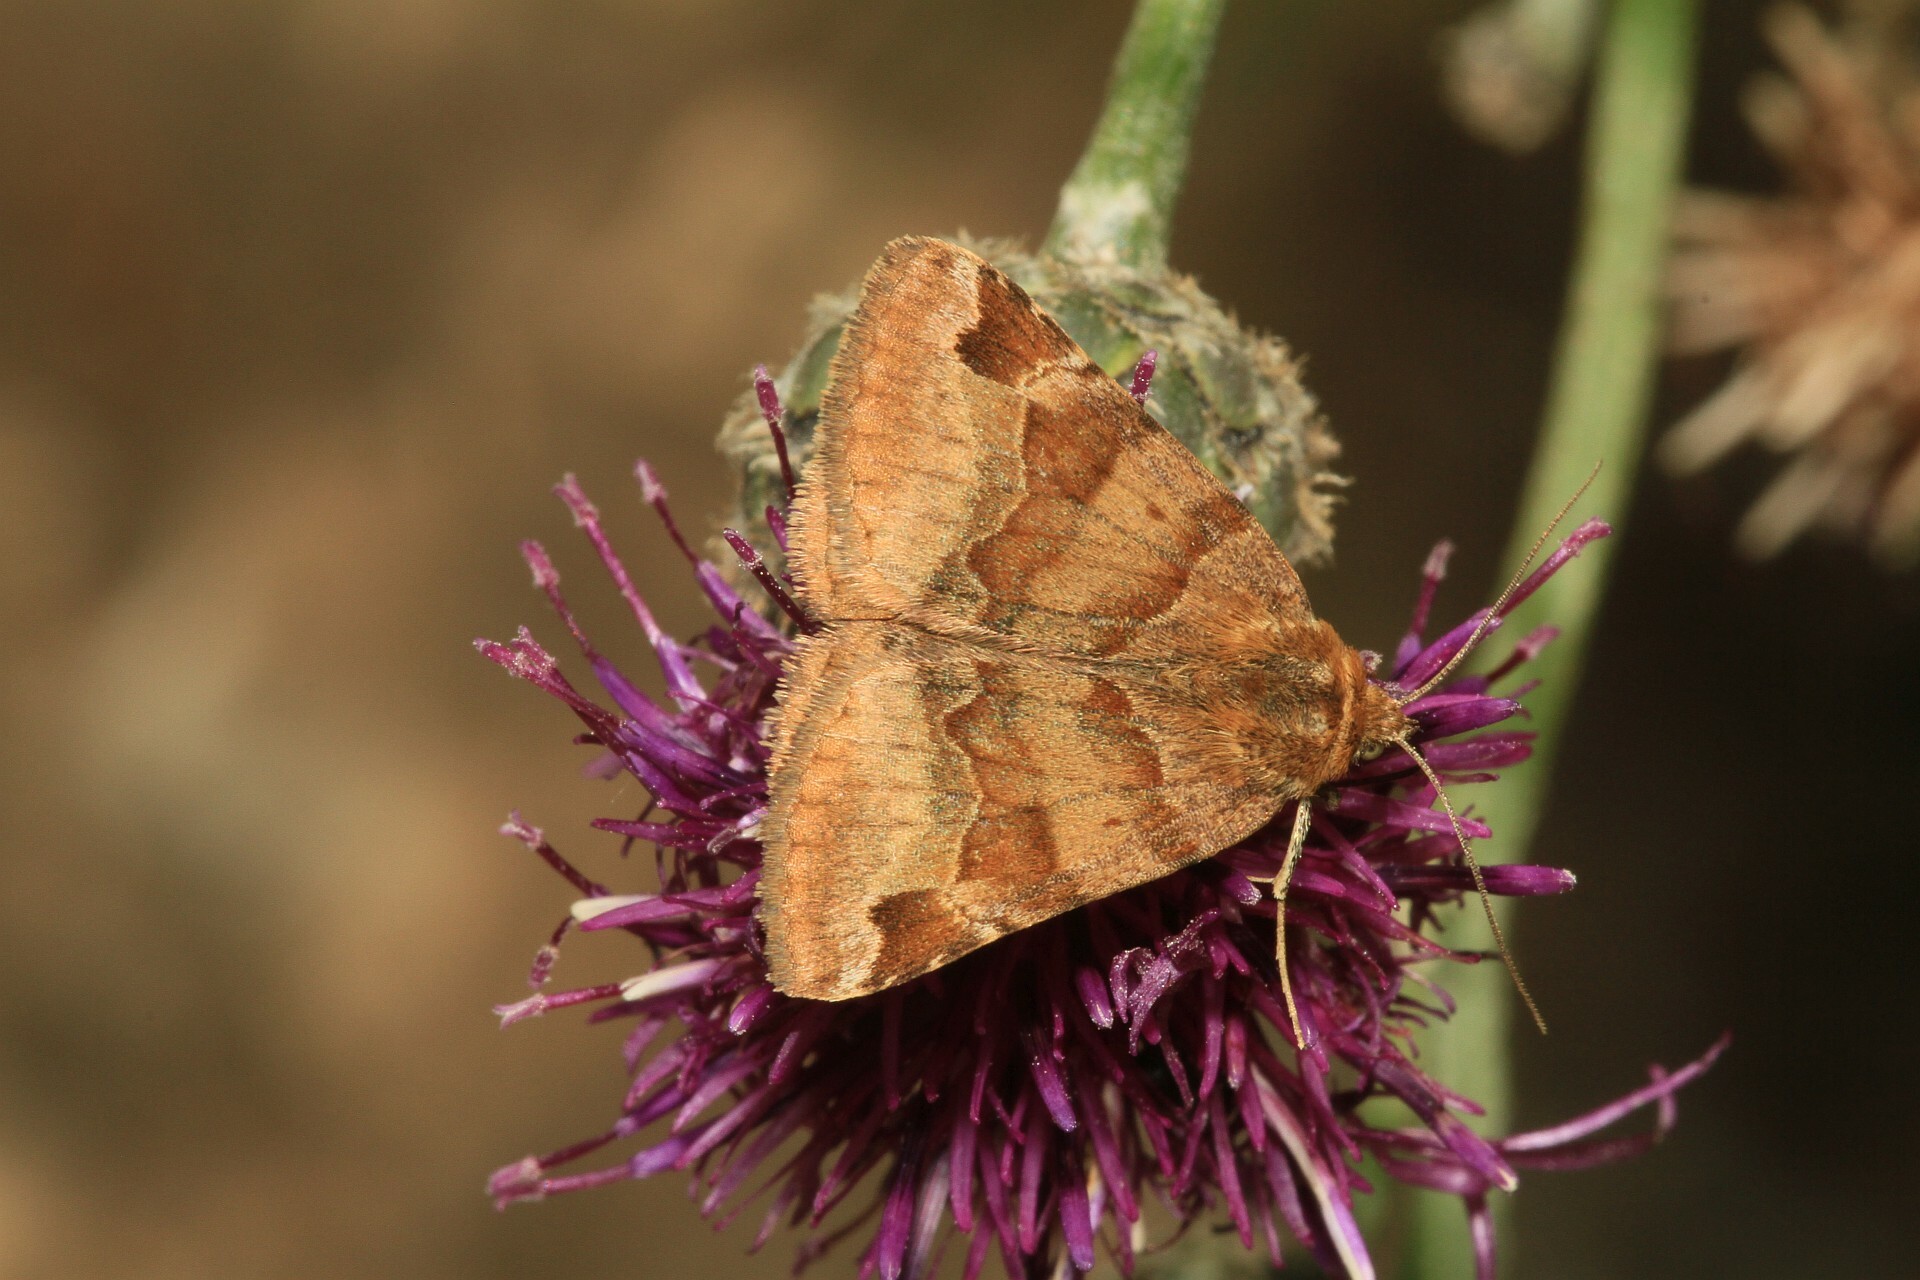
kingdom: Animalia
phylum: Arthropoda
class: Insecta
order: Lepidoptera
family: Erebidae
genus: Euclidia
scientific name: Euclidia glyphica
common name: Burnet companion
